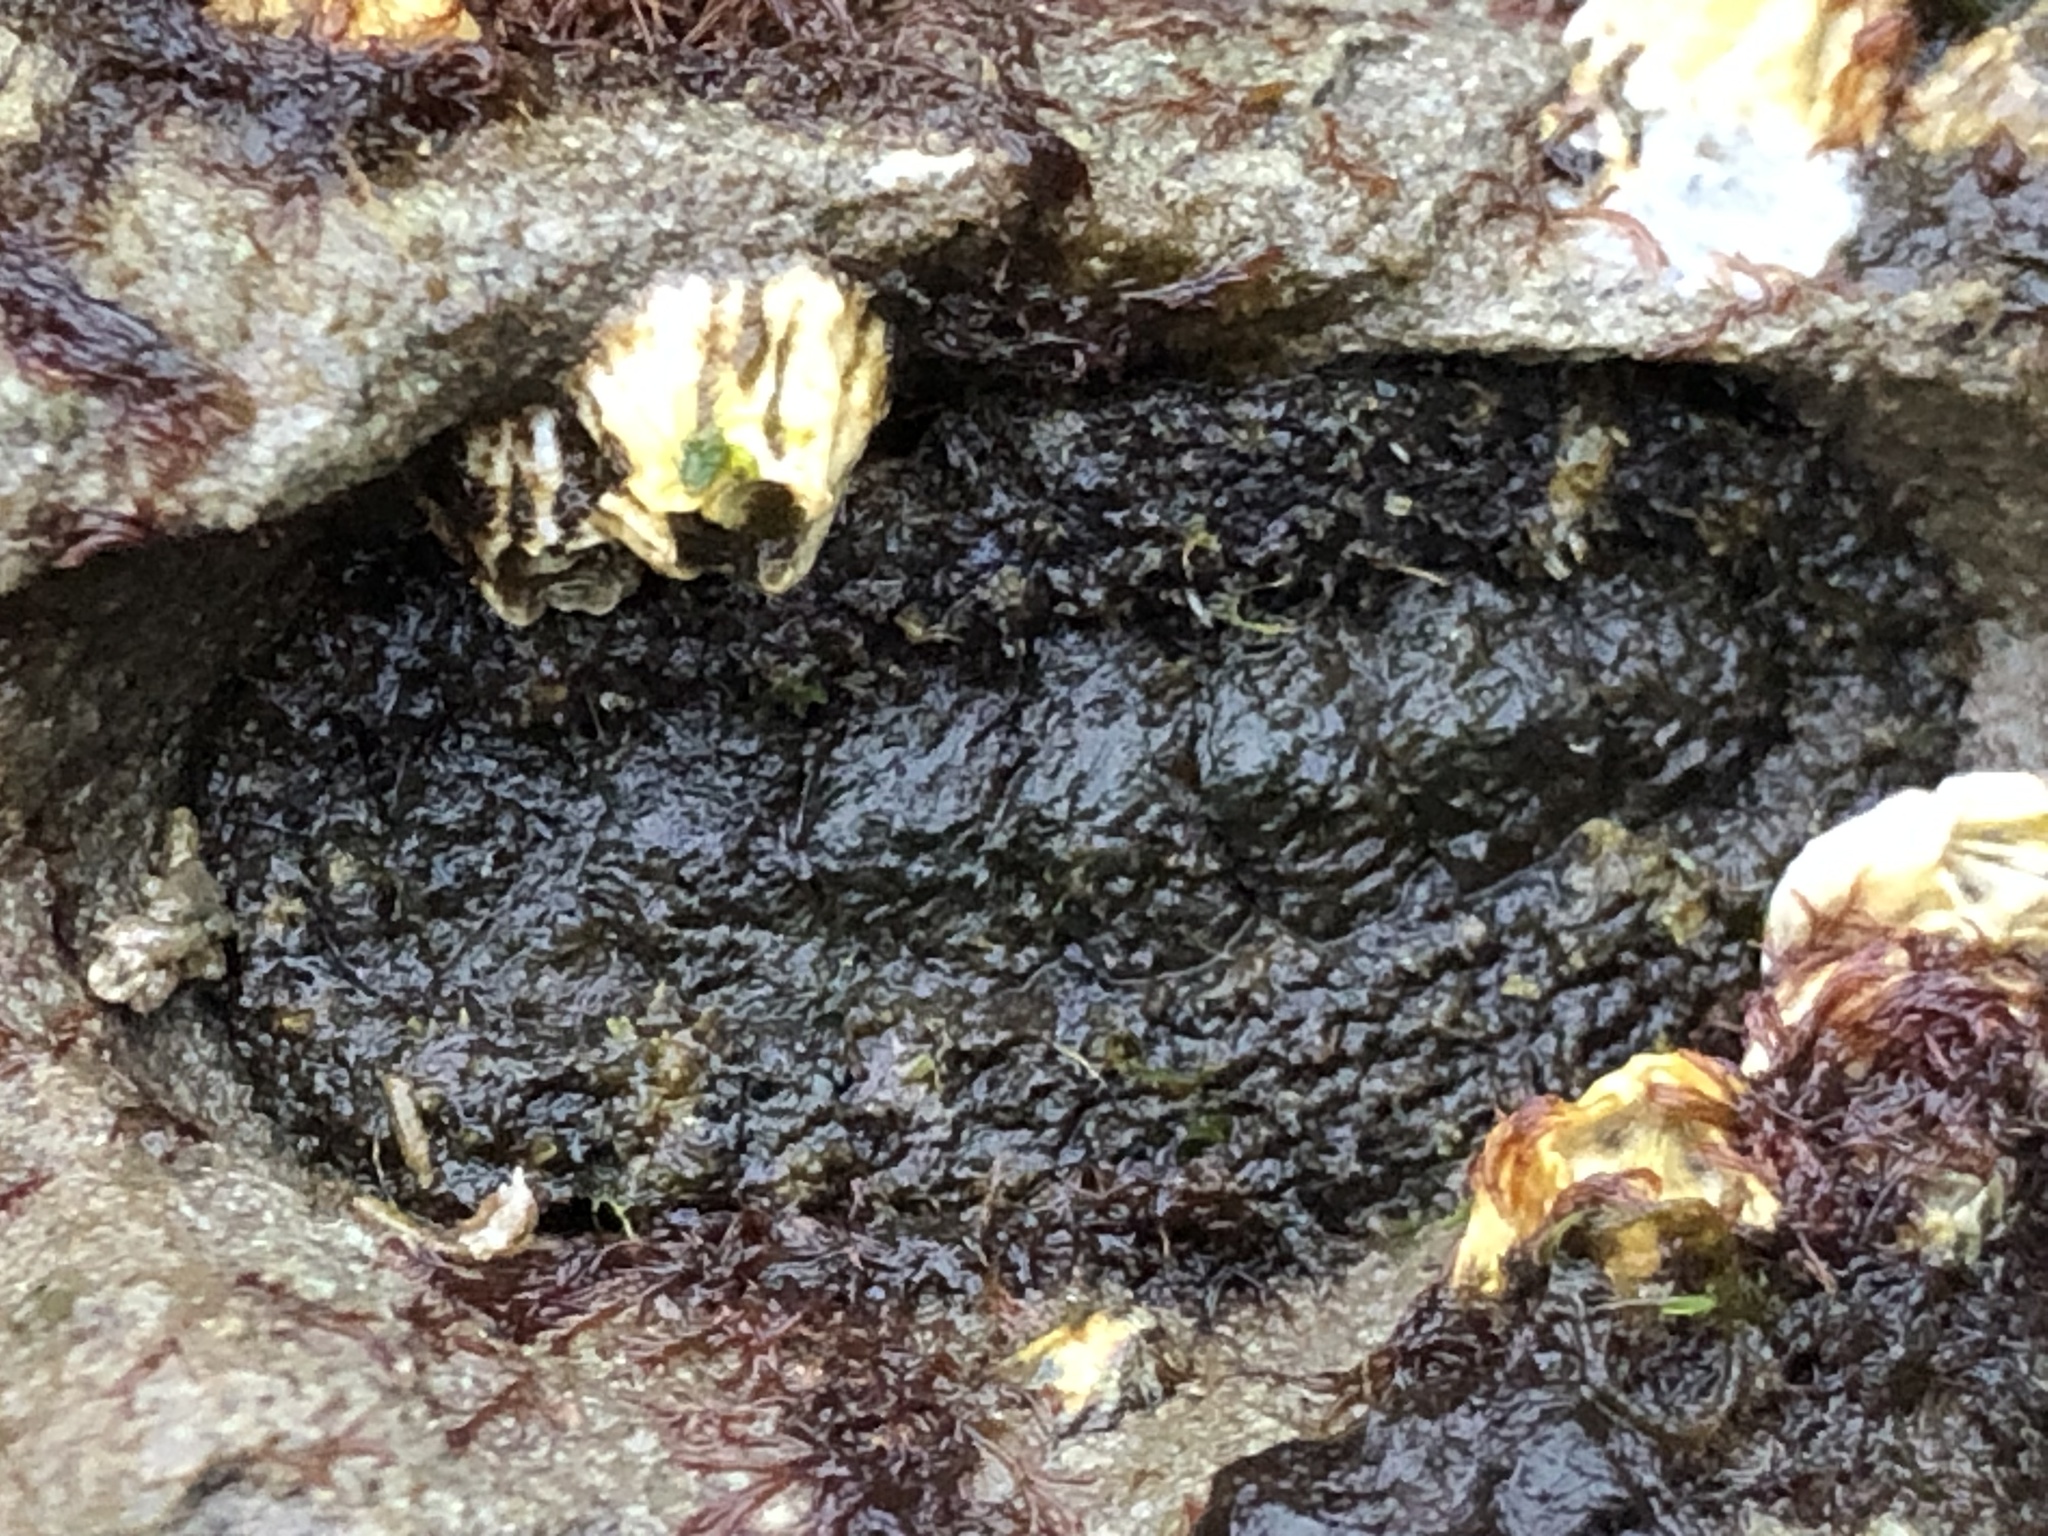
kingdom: Animalia
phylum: Mollusca
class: Polyplacophora
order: Chitonida
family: Tonicellidae
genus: Nuttallina
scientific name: Nuttallina californica
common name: California nuttall chiton
